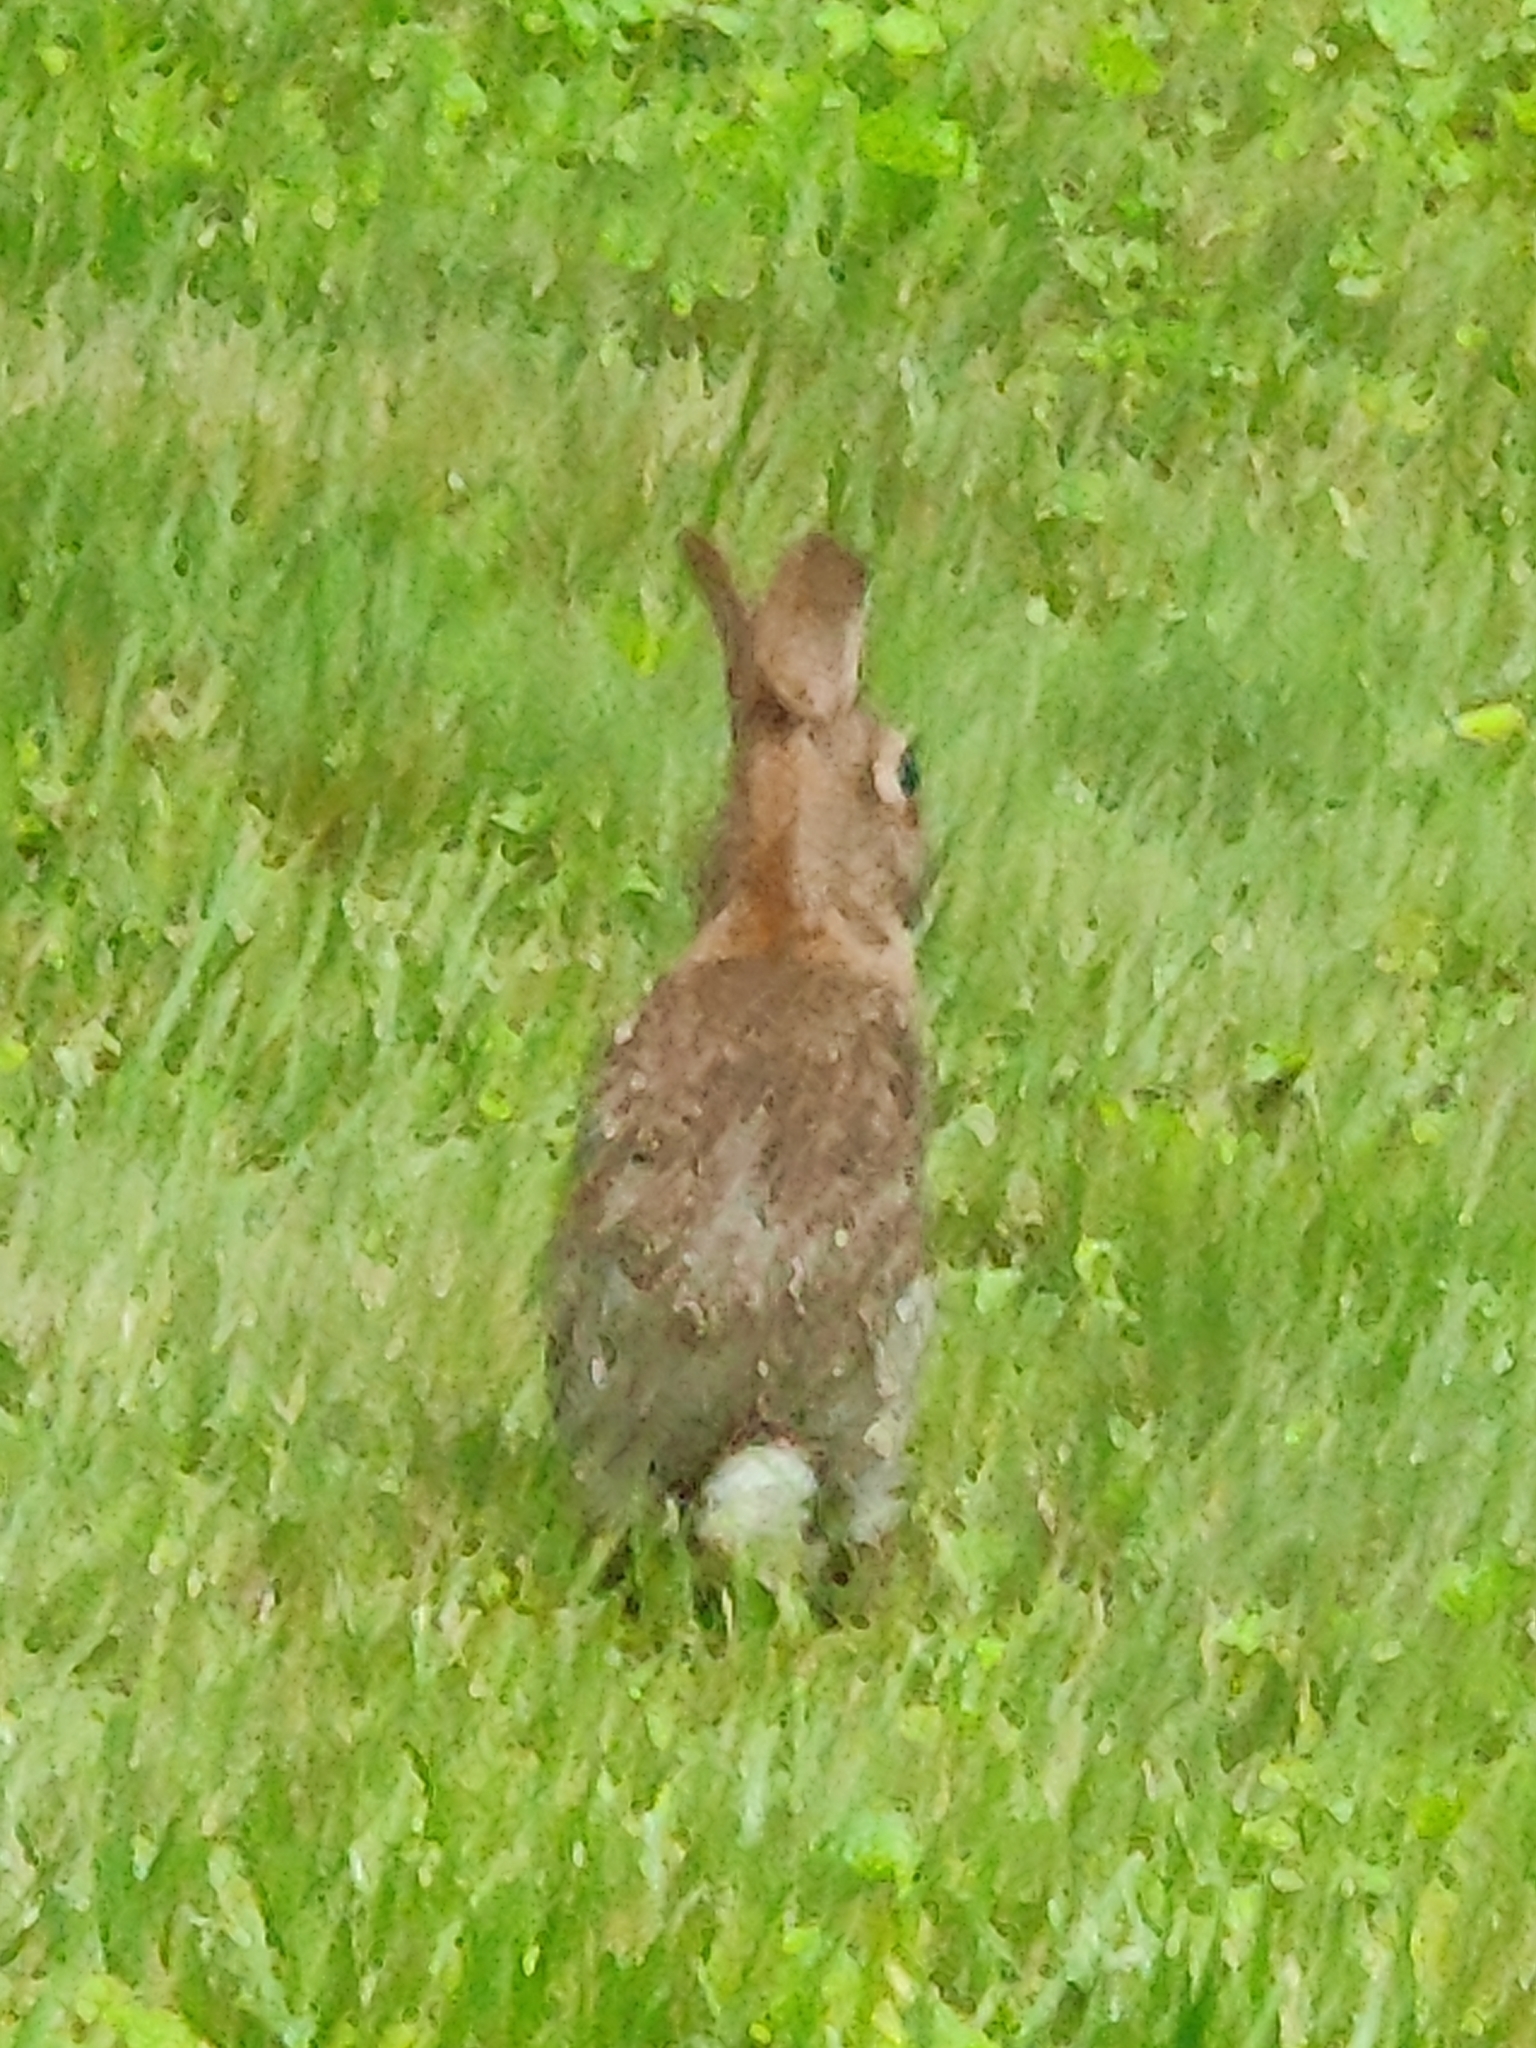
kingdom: Animalia
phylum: Chordata
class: Mammalia
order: Lagomorpha
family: Leporidae
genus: Sylvilagus
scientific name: Sylvilagus floridanus
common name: Eastern cottontail
